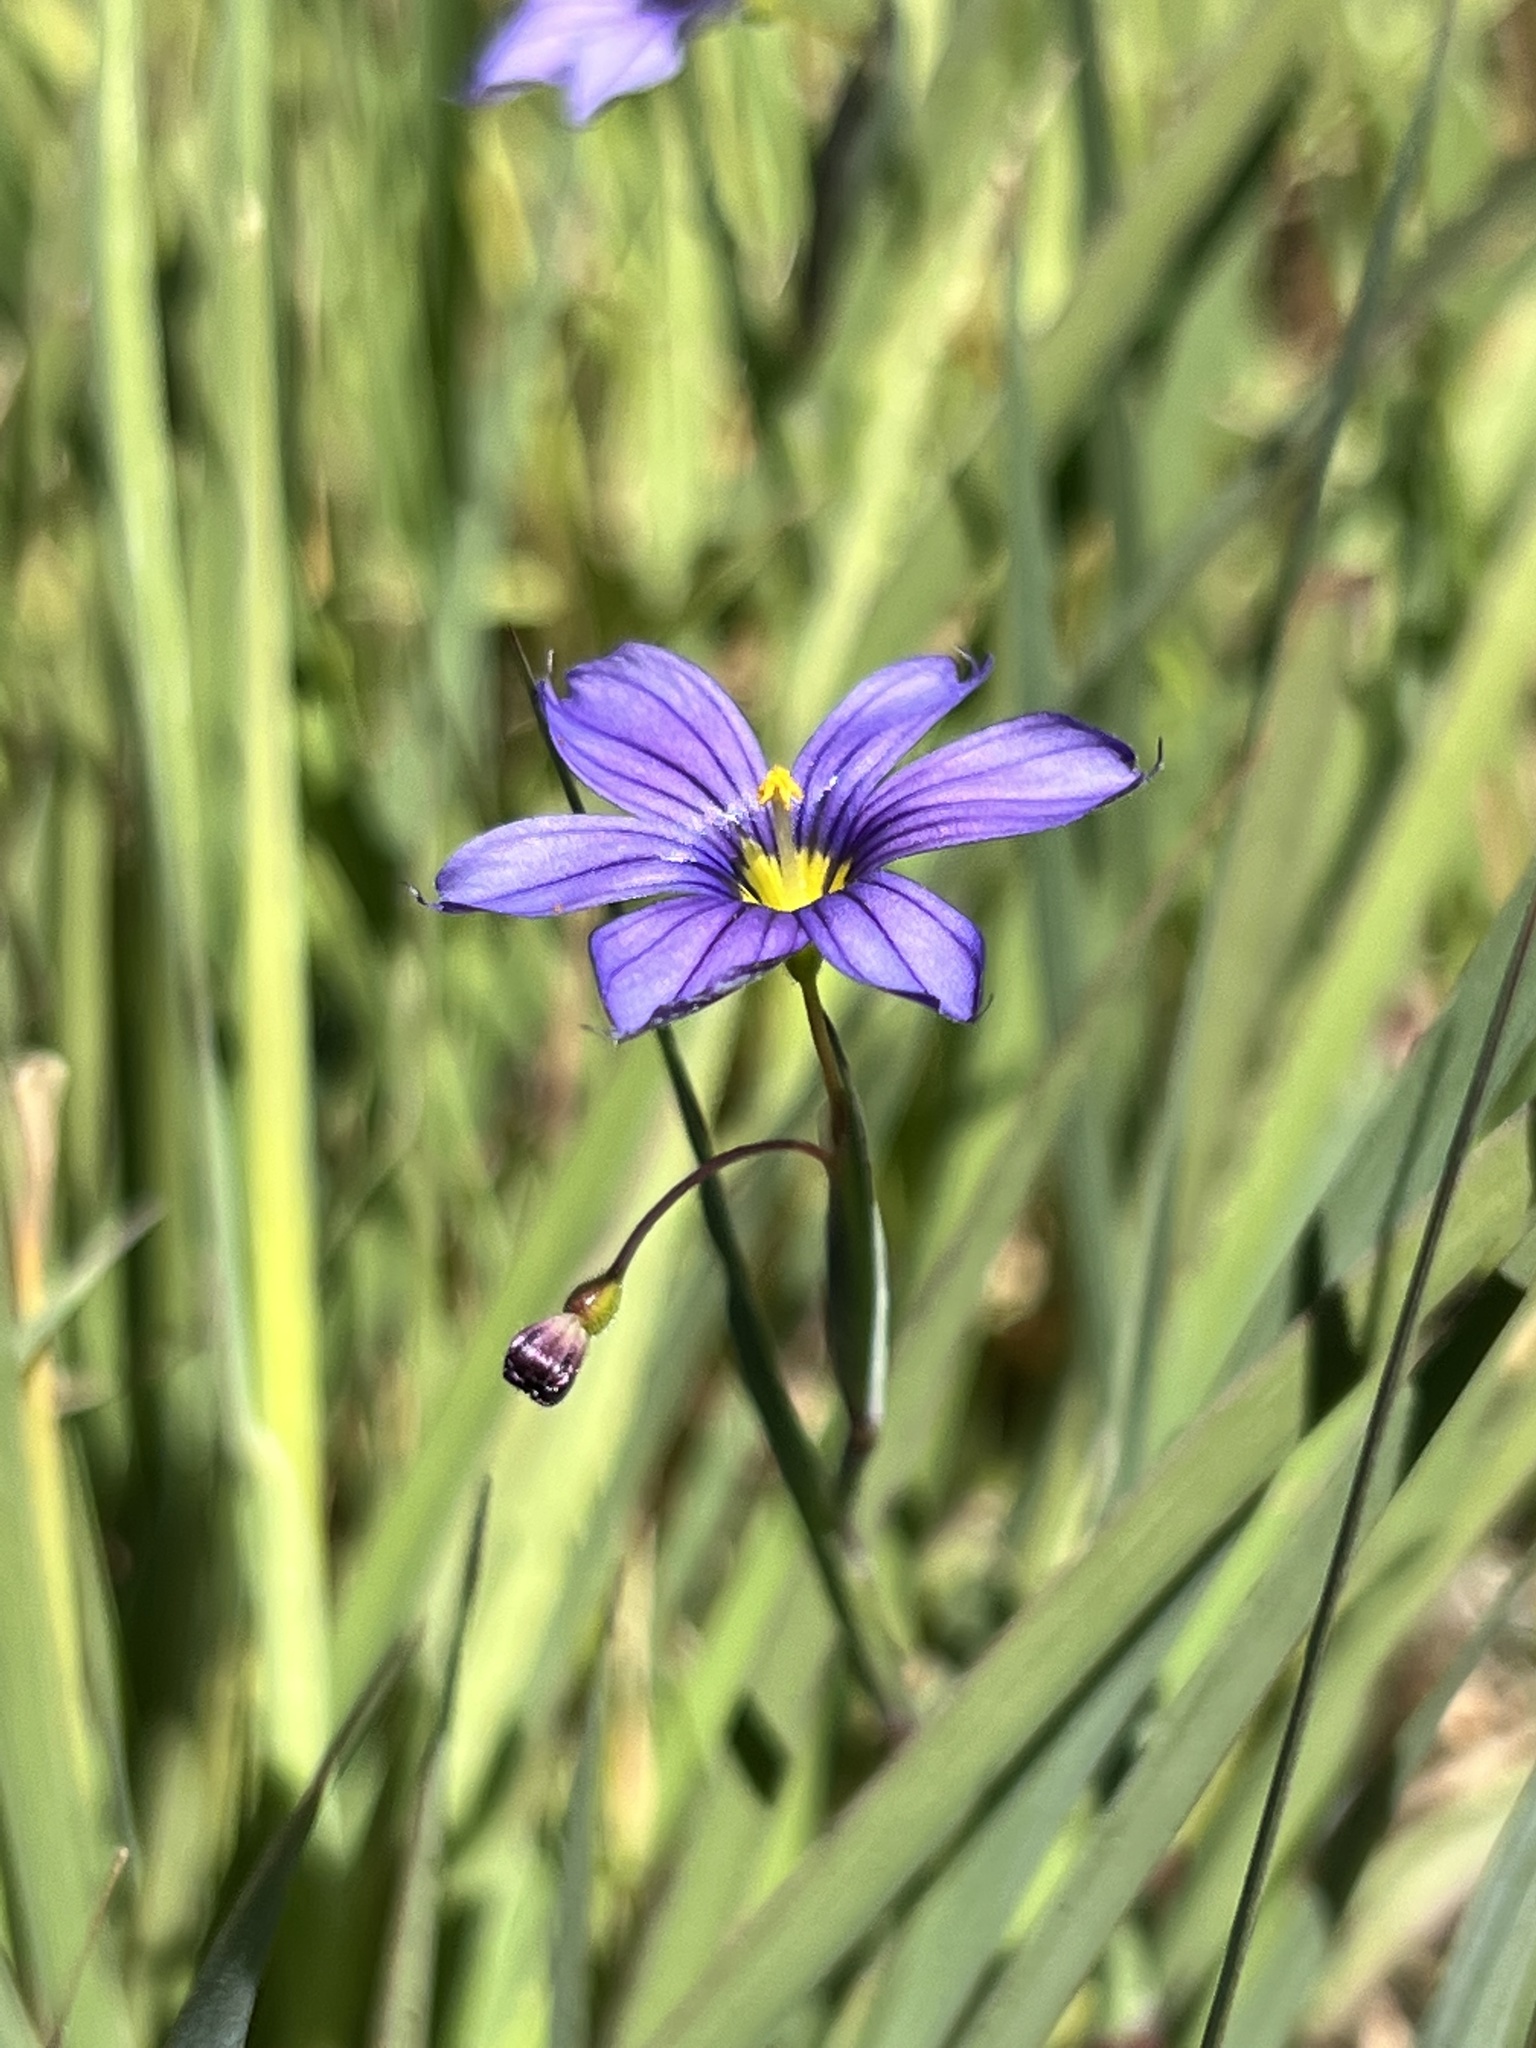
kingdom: Plantae
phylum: Tracheophyta
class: Liliopsida
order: Asparagales
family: Iridaceae
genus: Sisyrinchium
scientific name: Sisyrinchium bellum
